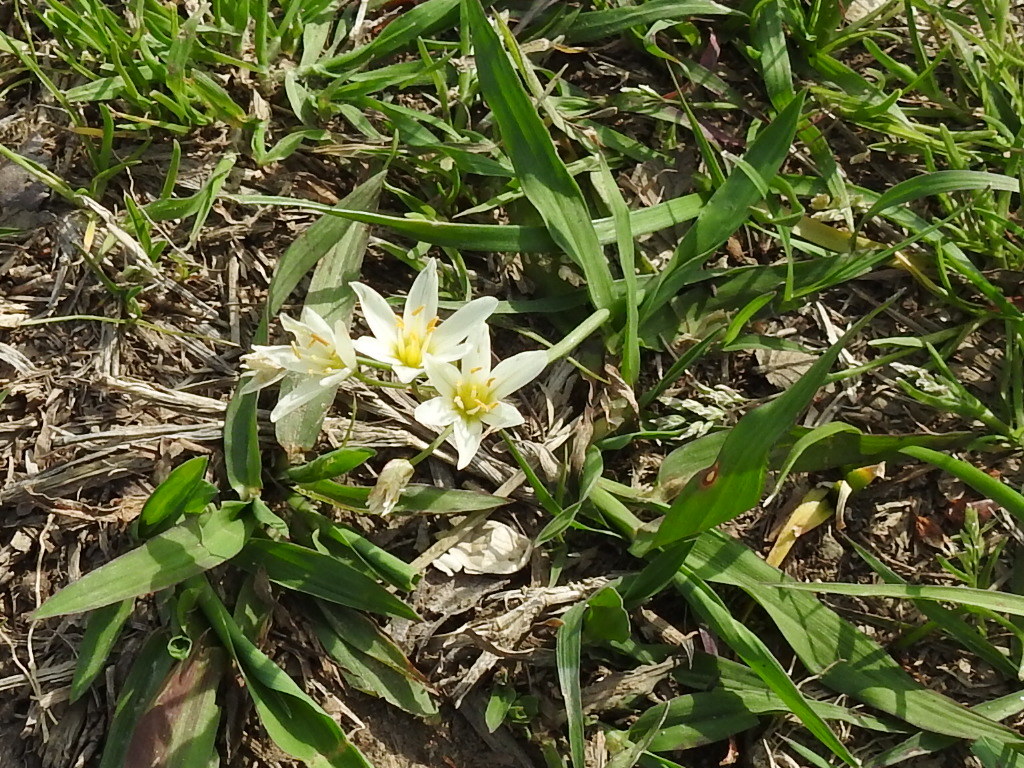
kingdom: Plantae
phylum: Tracheophyta
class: Liliopsida
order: Asparagales
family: Amaryllidaceae
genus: Nothoscordum
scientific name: Nothoscordum bivalve
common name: Crow-poison
